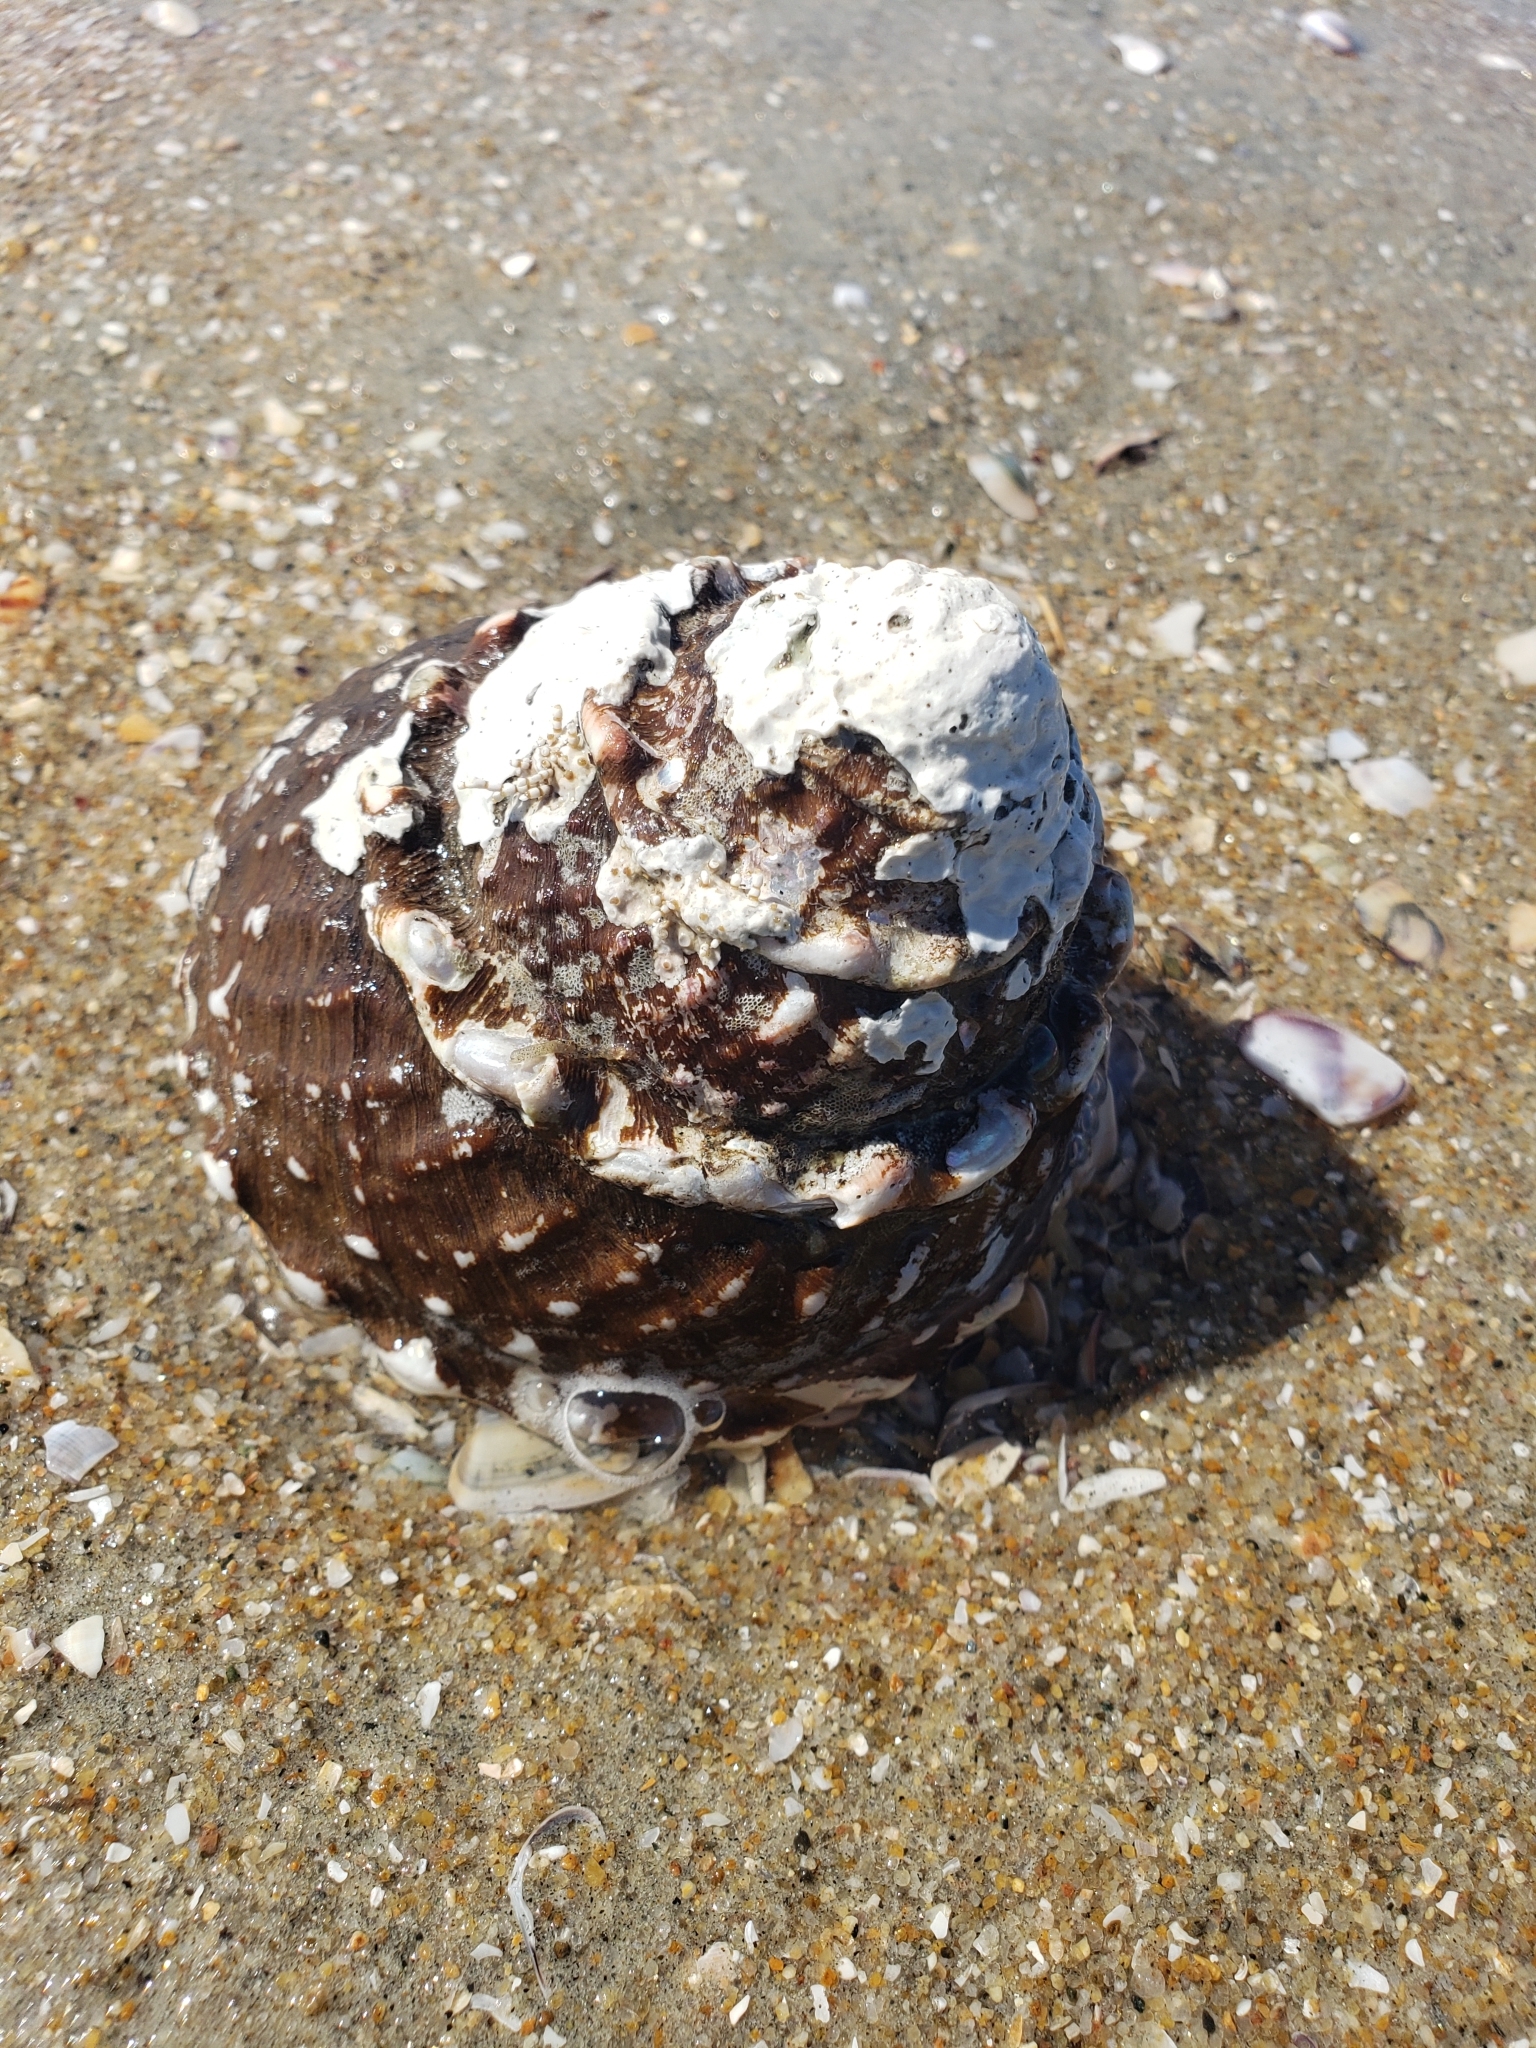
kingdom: Animalia
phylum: Mollusca
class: Gastropoda
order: Trochida
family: Turbinidae
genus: Megastraea
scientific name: Megastraea undosa
